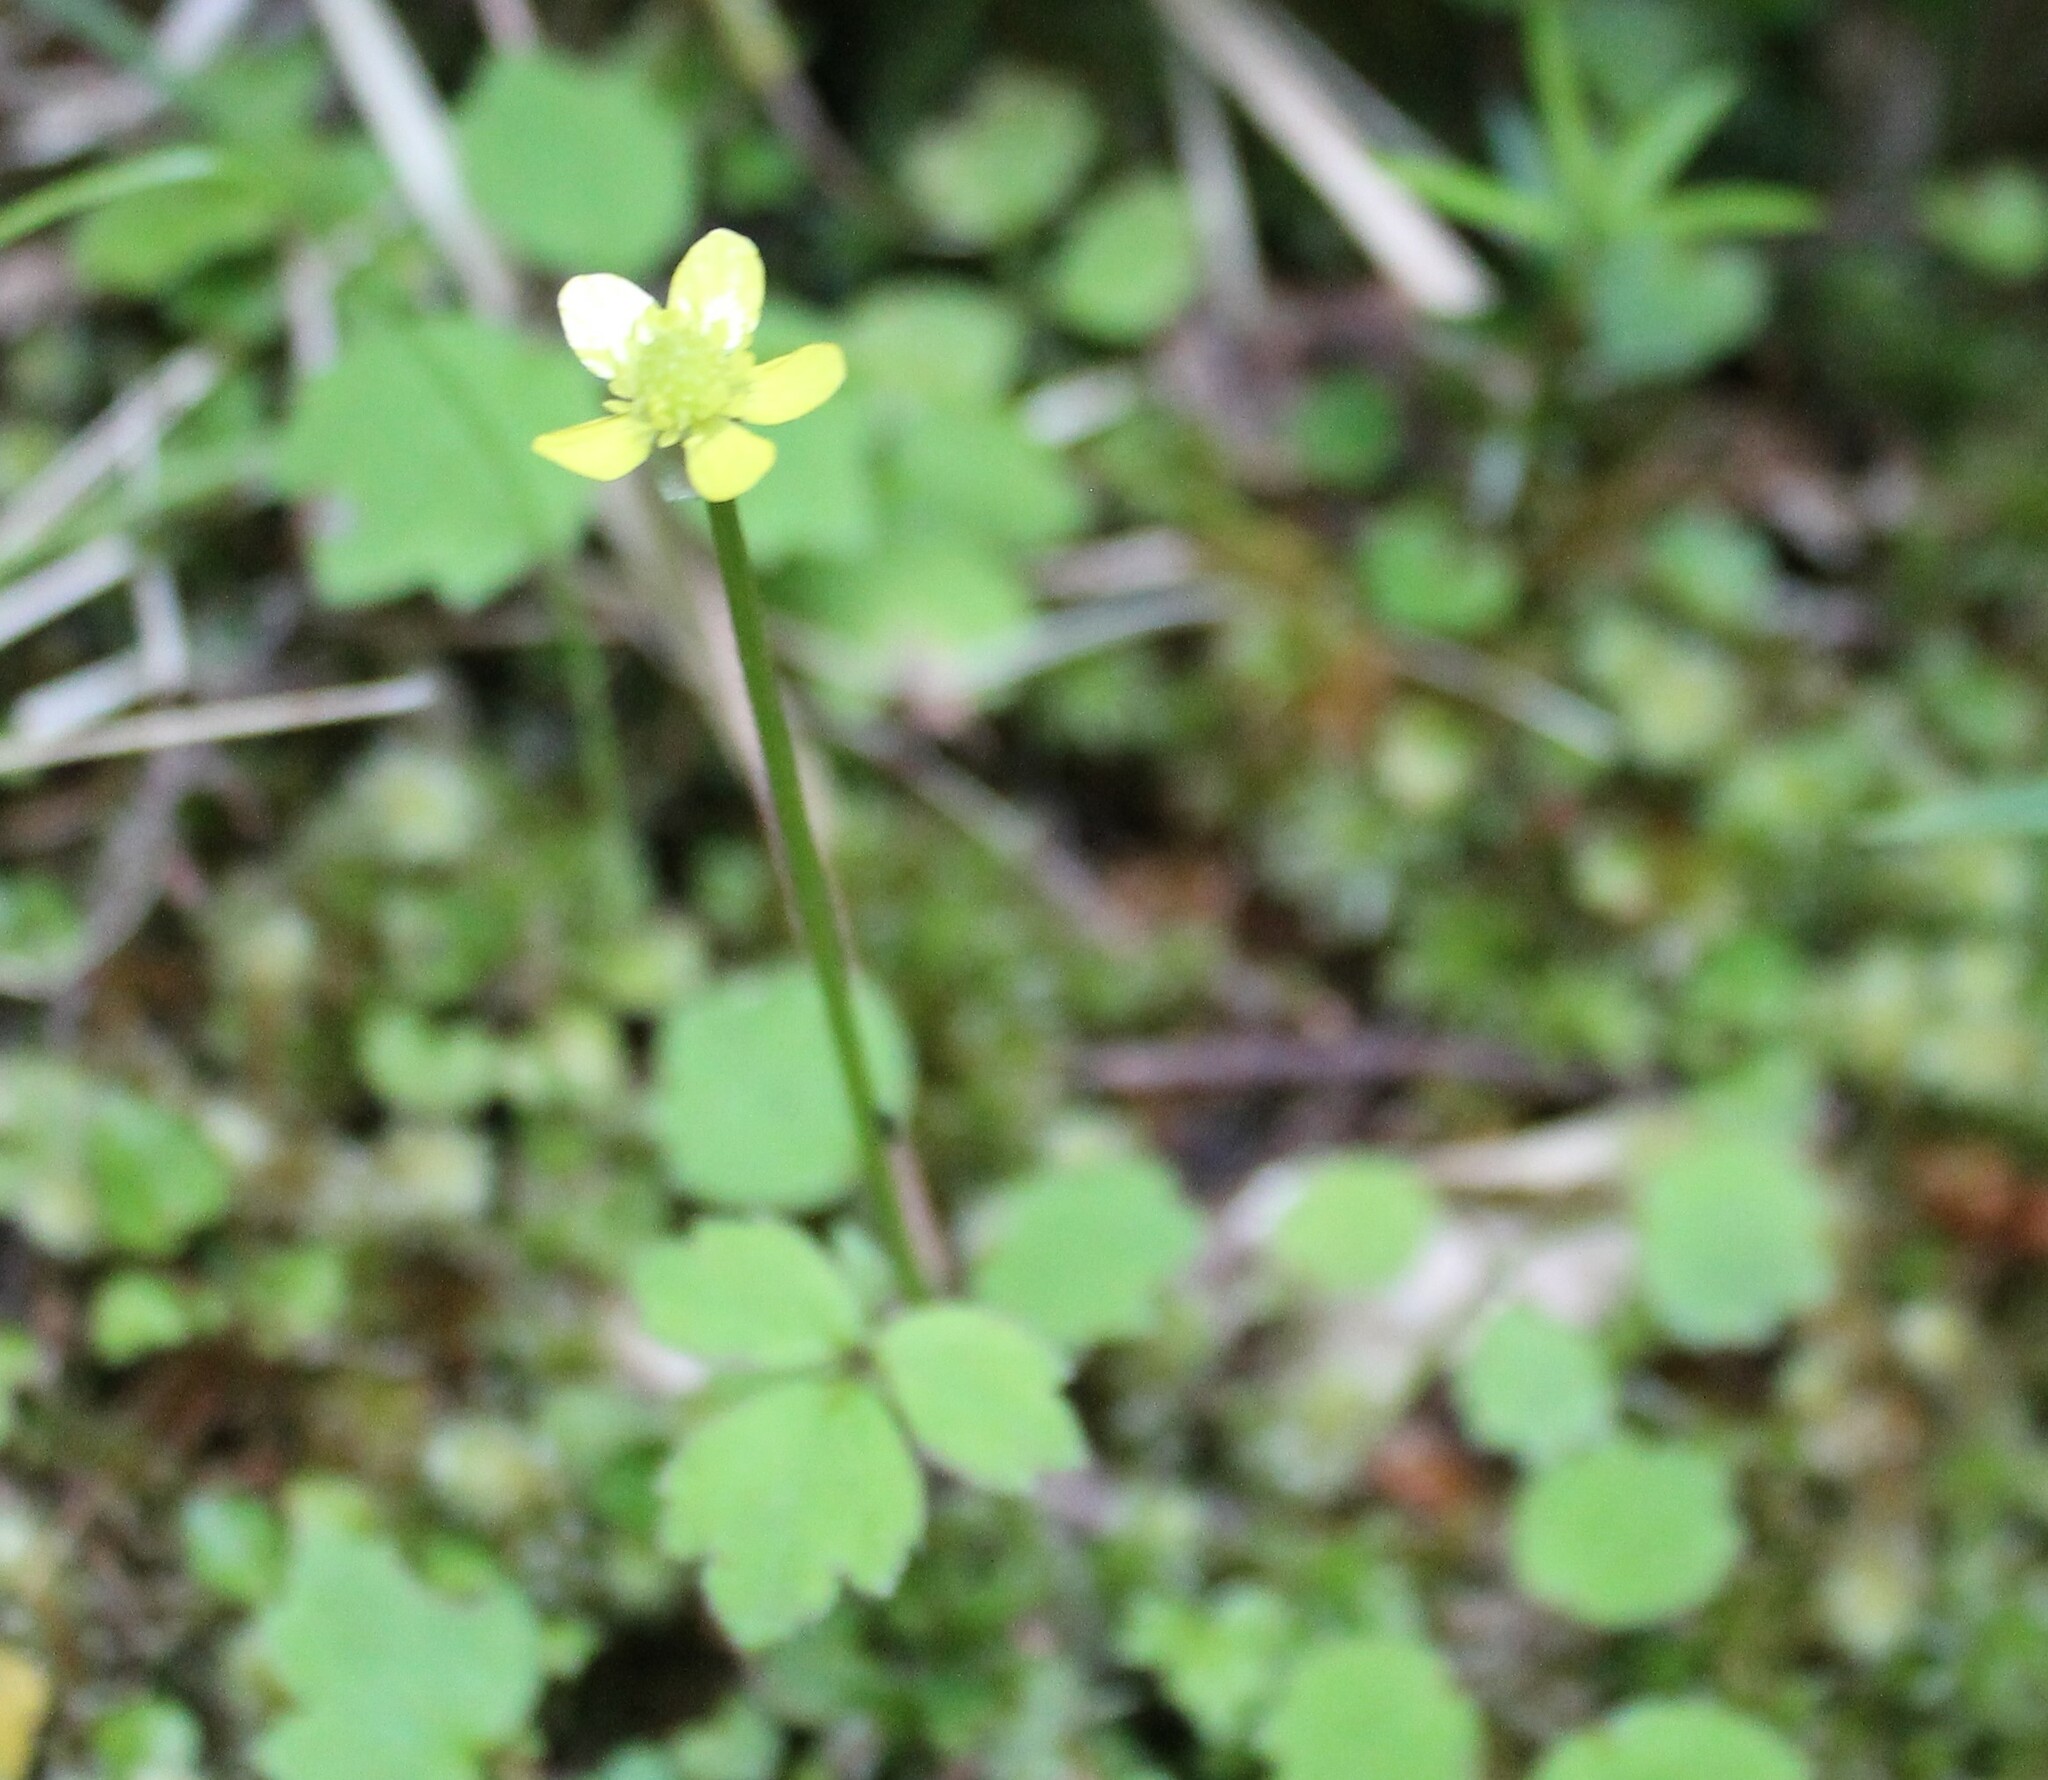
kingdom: Plantae
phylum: Tracheophyta
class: Magnoliopsida
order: Ranunculales
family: Ranunculaceae
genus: Ranunculus
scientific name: Ranunculus reflexus
